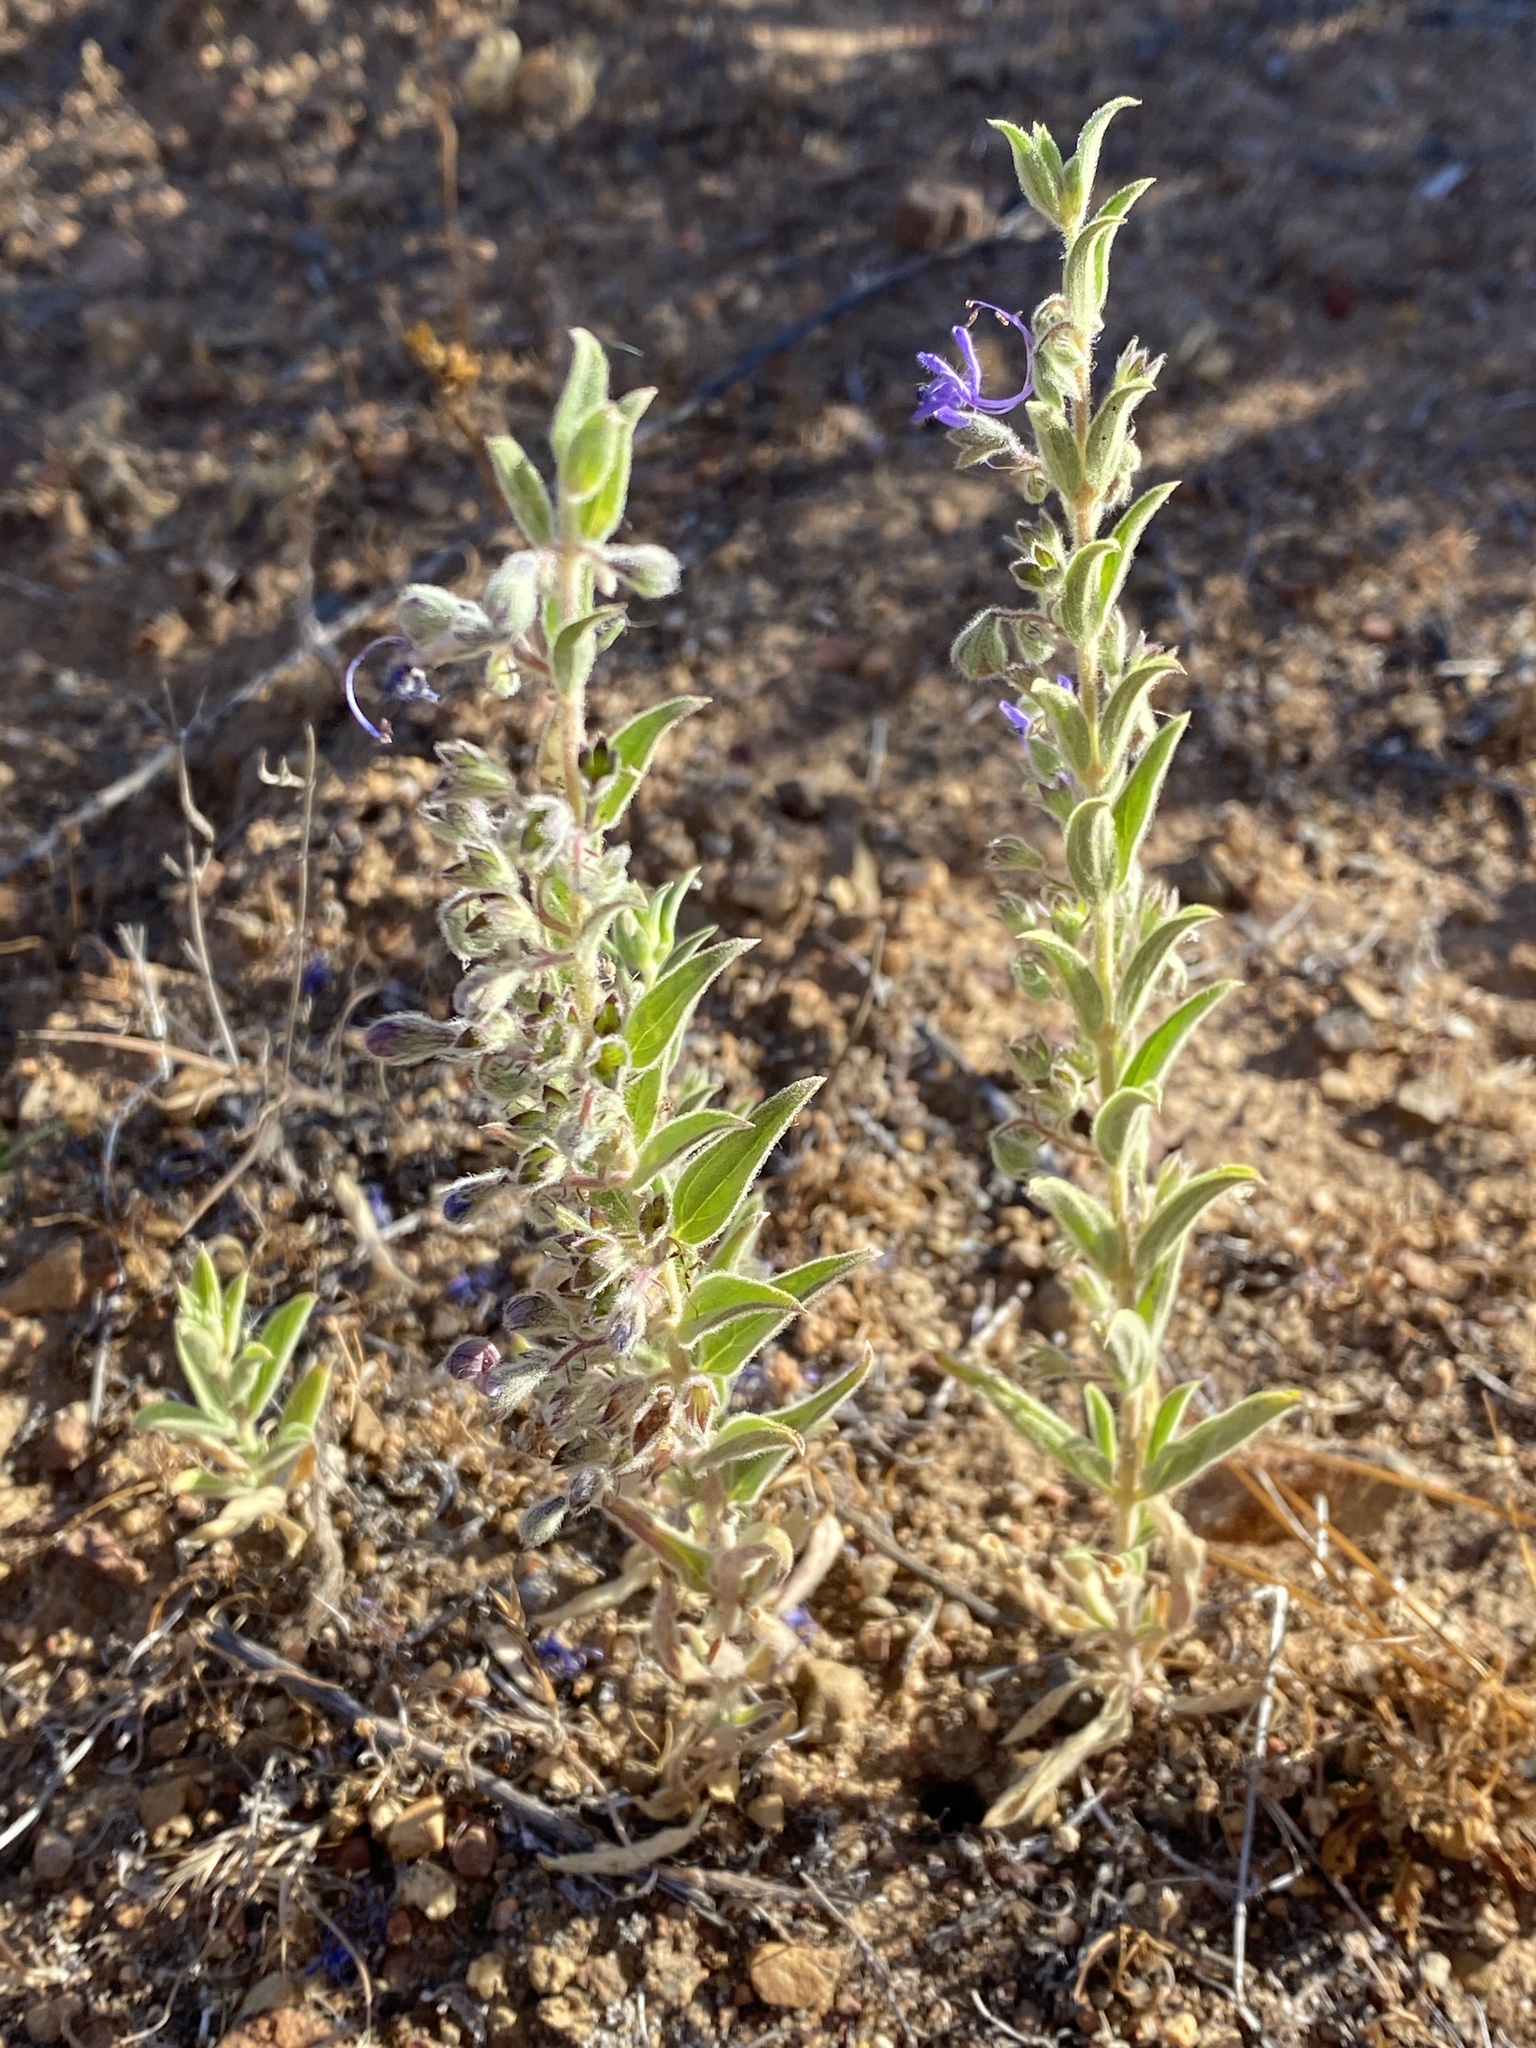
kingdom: Plantae
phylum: Tracheophyta
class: Magnoliopsida
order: Lamiales
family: Lamiaceae
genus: Trichostema
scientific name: Trichostema lanceolatum
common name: Vinegar-weed
